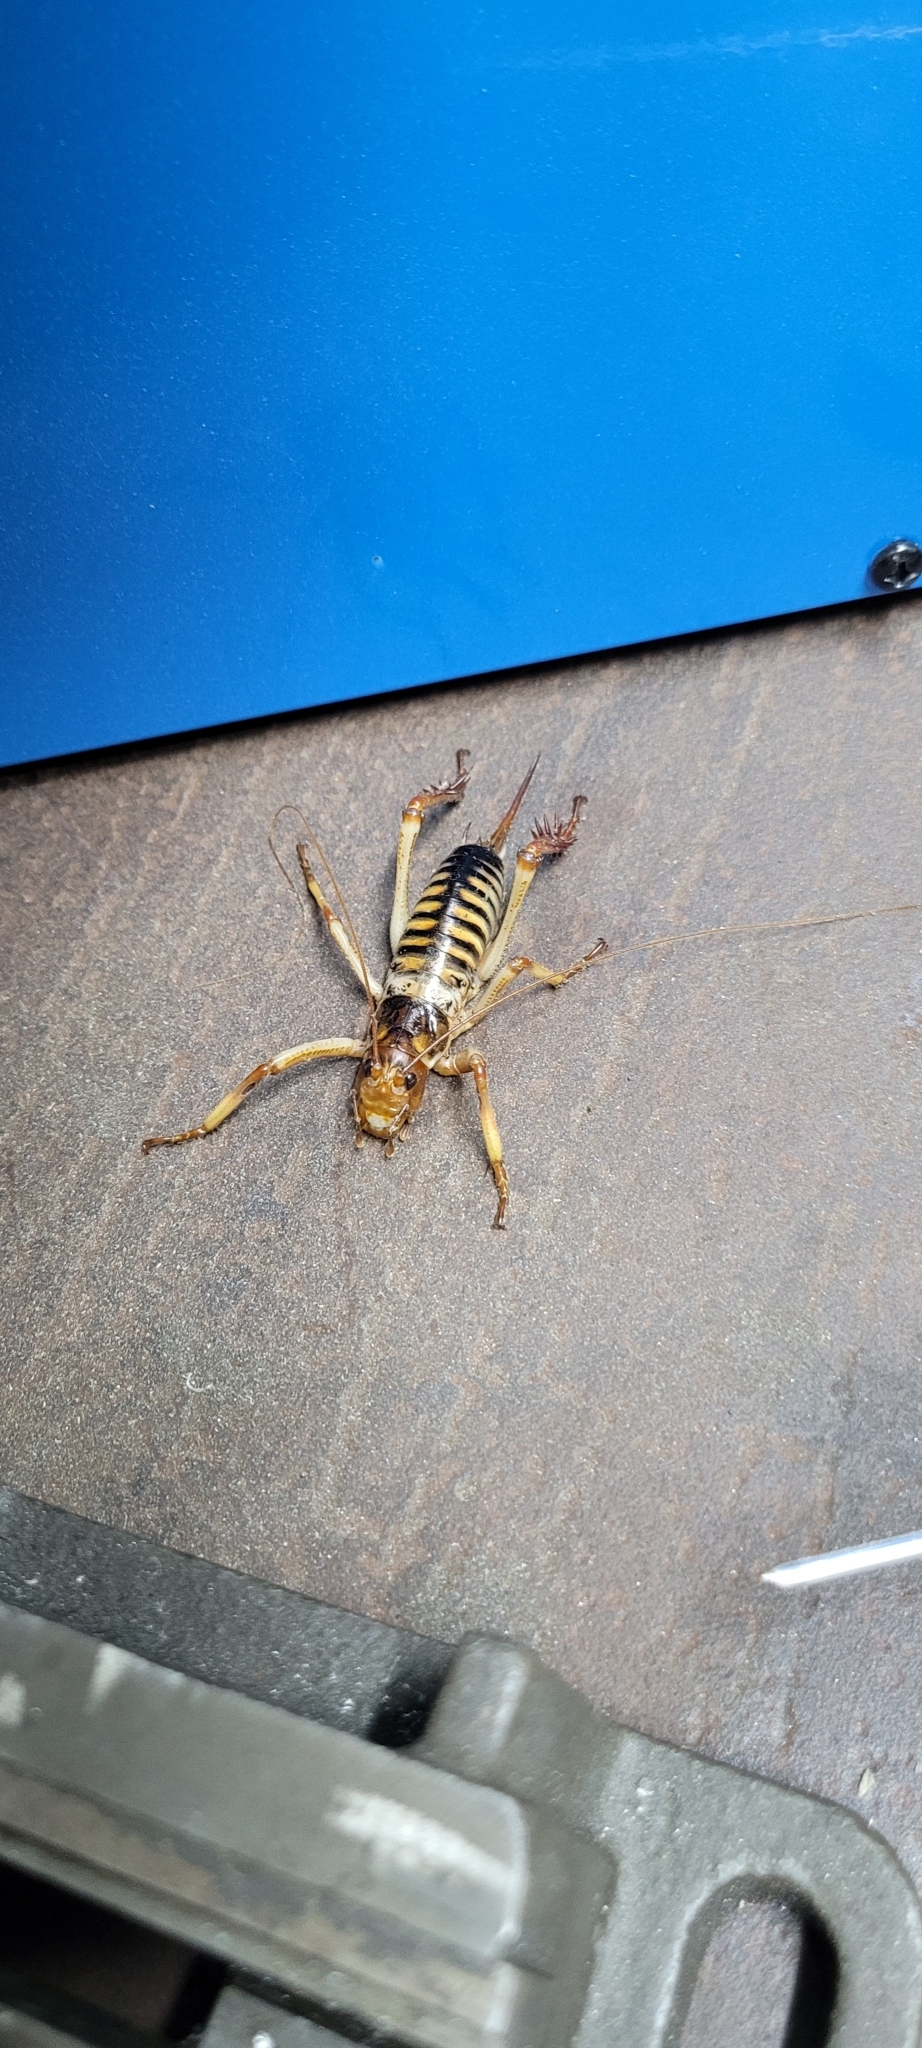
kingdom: Animalia
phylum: Arthropoda
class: Insecta
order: Orthoptera
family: Anostostomatidae
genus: Hemideina
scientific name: Hemideina crassidens
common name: Wellington tree weta
